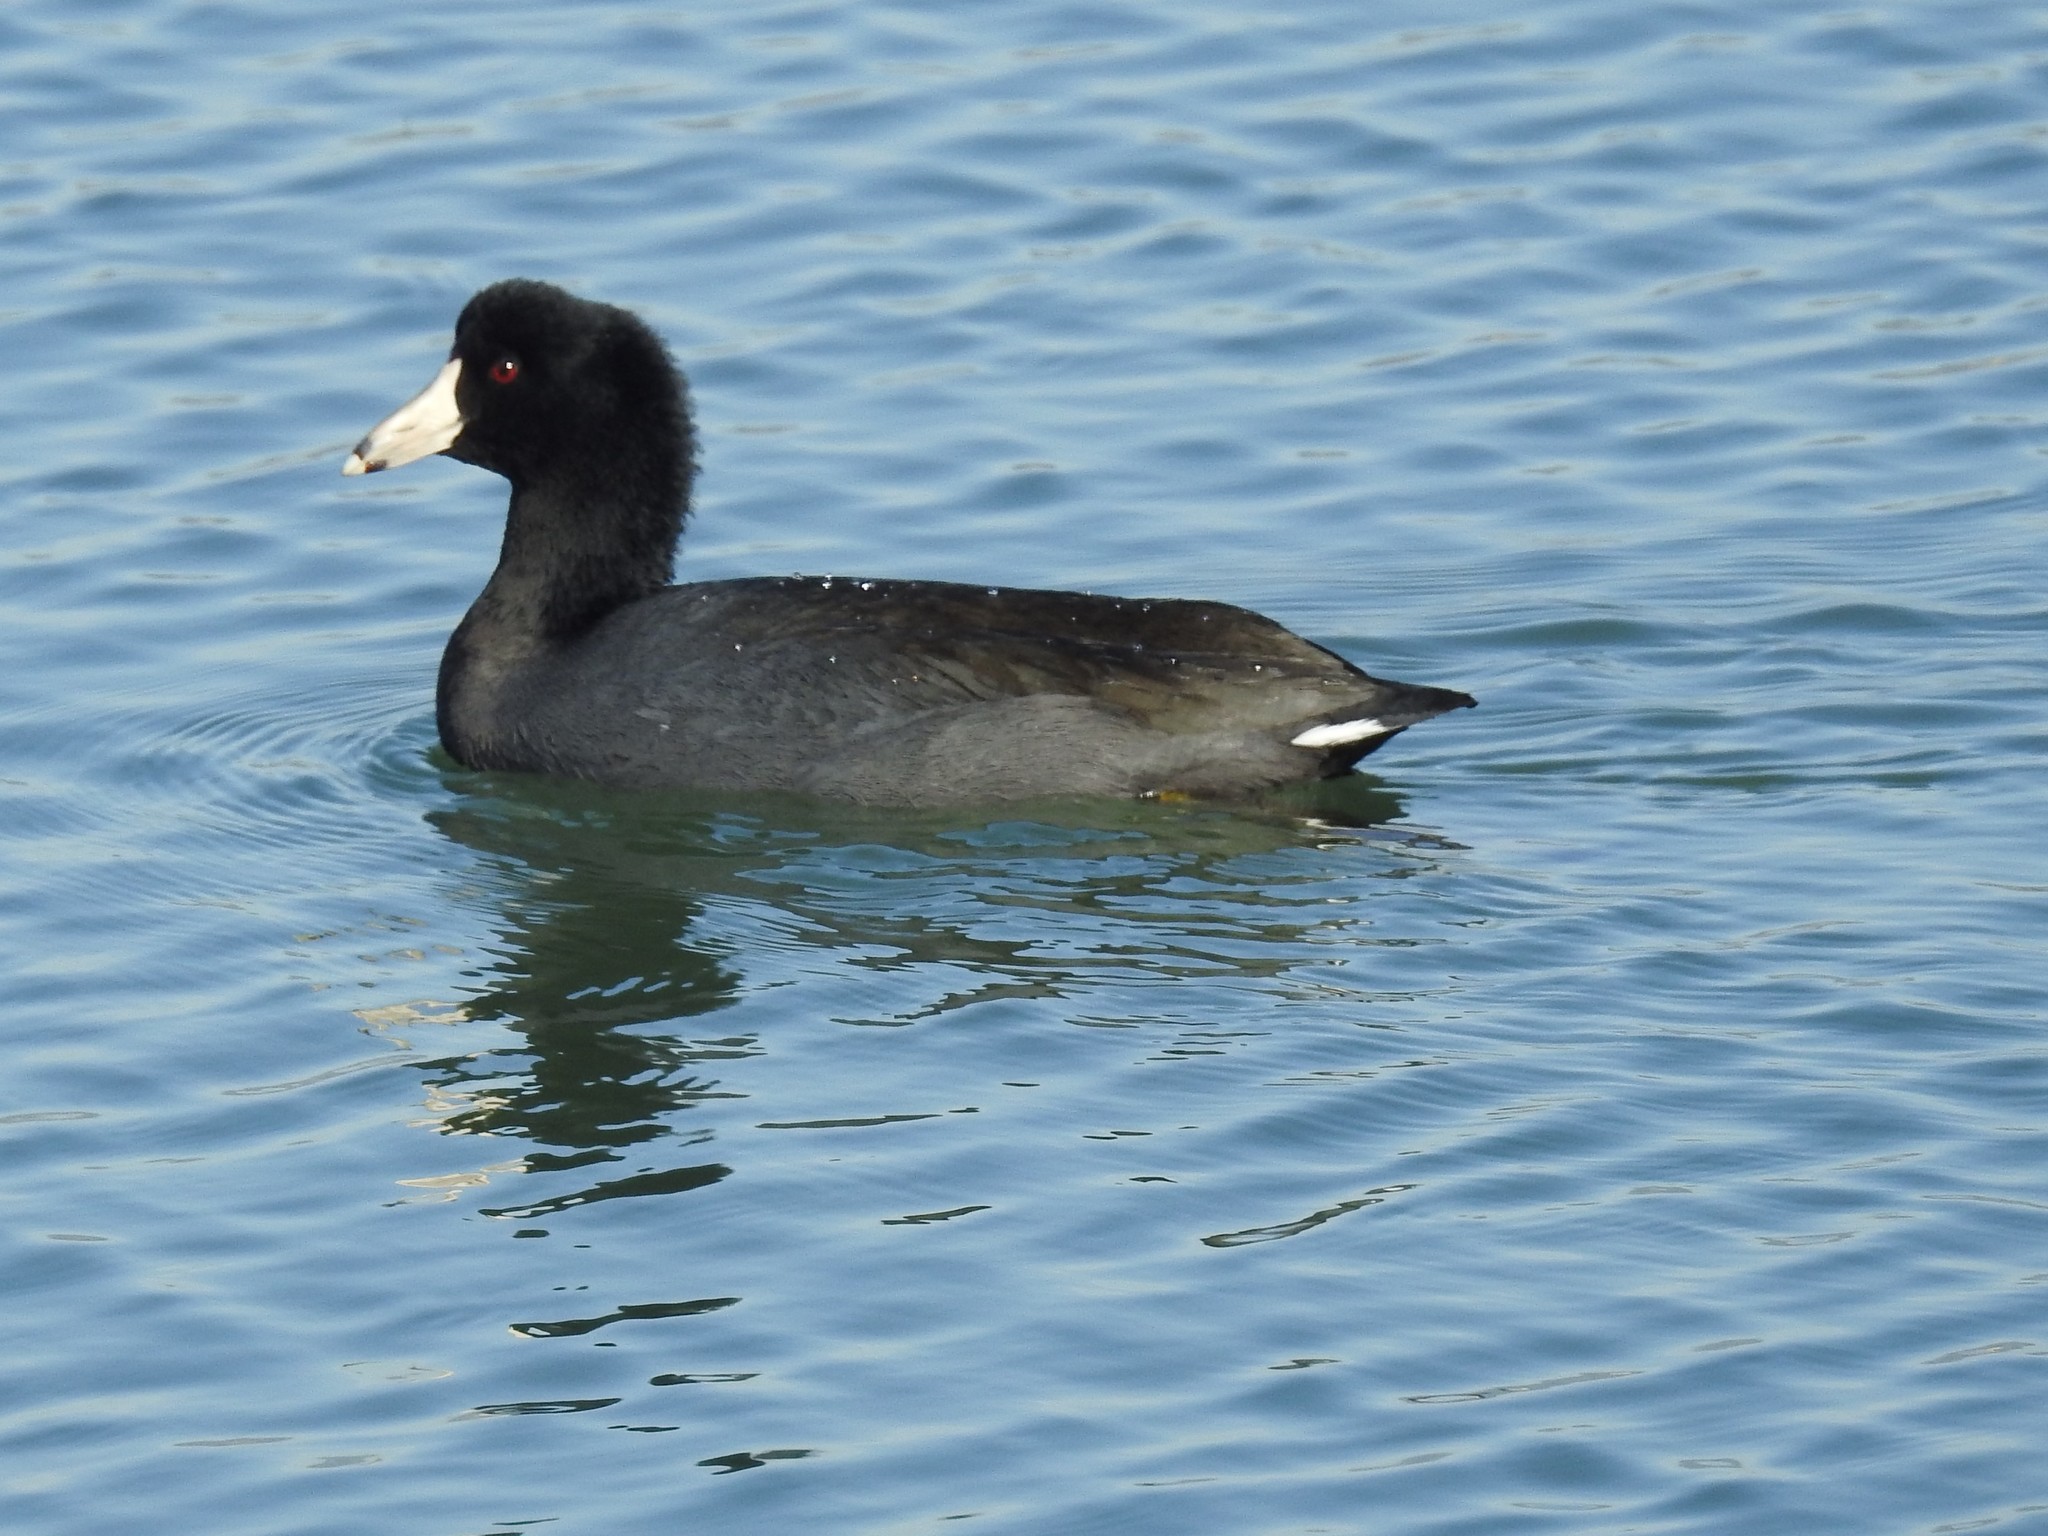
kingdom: Animalia
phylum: Chordata
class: Aves
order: Gruiformes
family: Rallidae
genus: Fulica
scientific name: Fulica americana
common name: American coot
